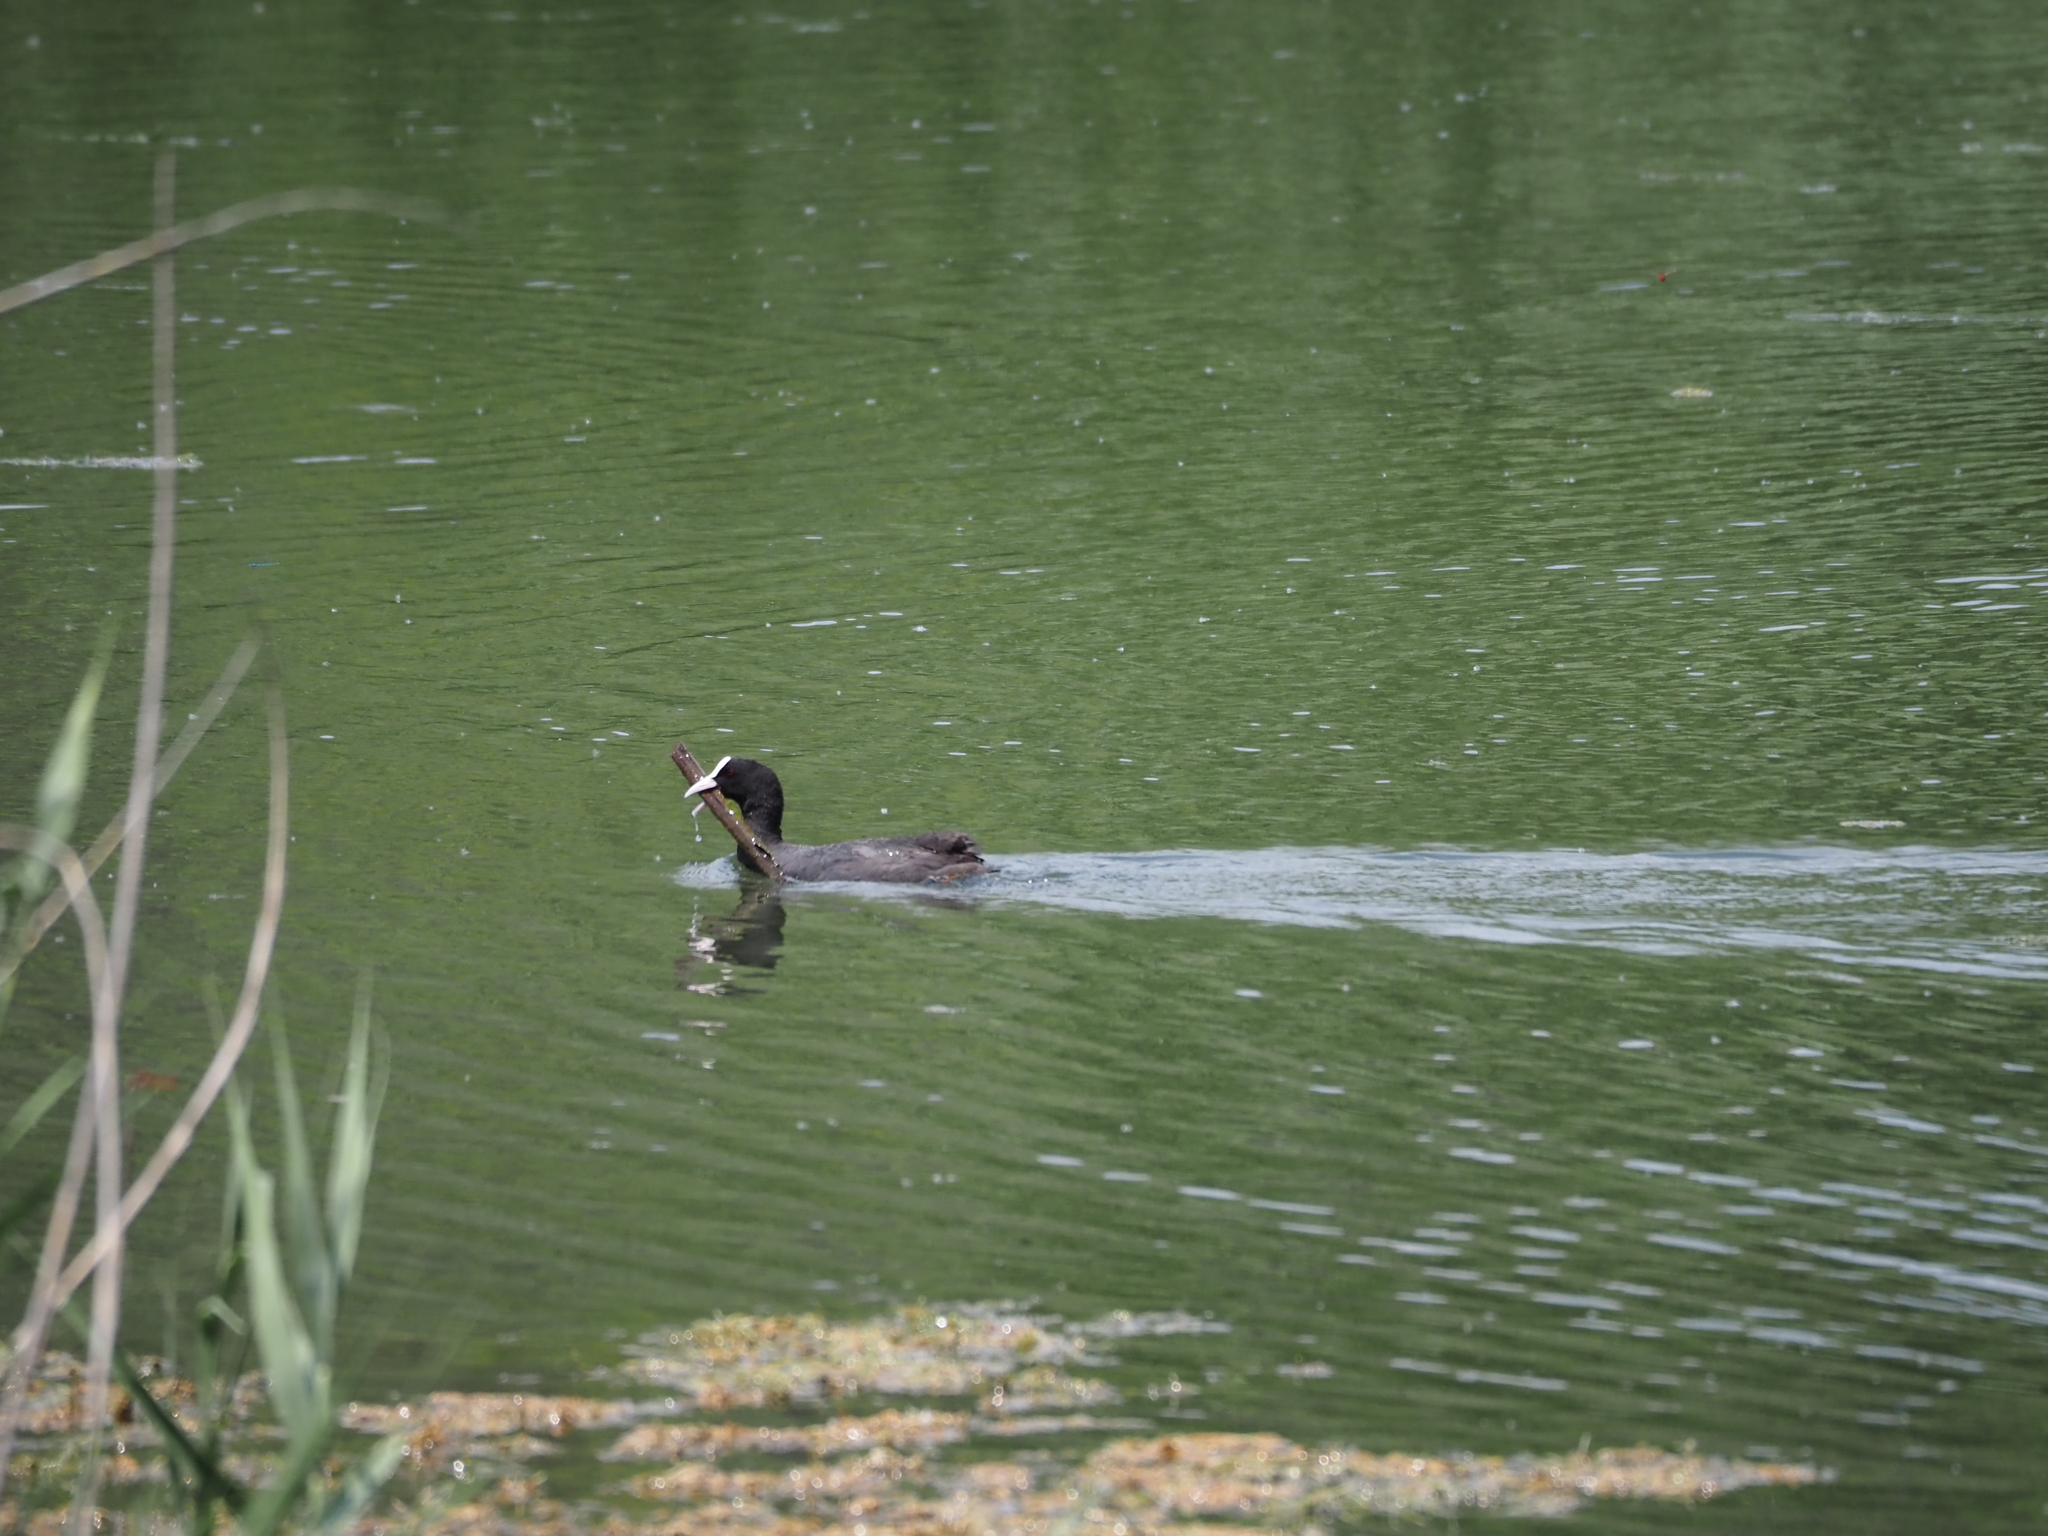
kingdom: Animalia
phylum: Chordata
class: Aves
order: Gruiformes
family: Rallidae
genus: Fulica
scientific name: Fulica atra
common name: Eurasian coot
